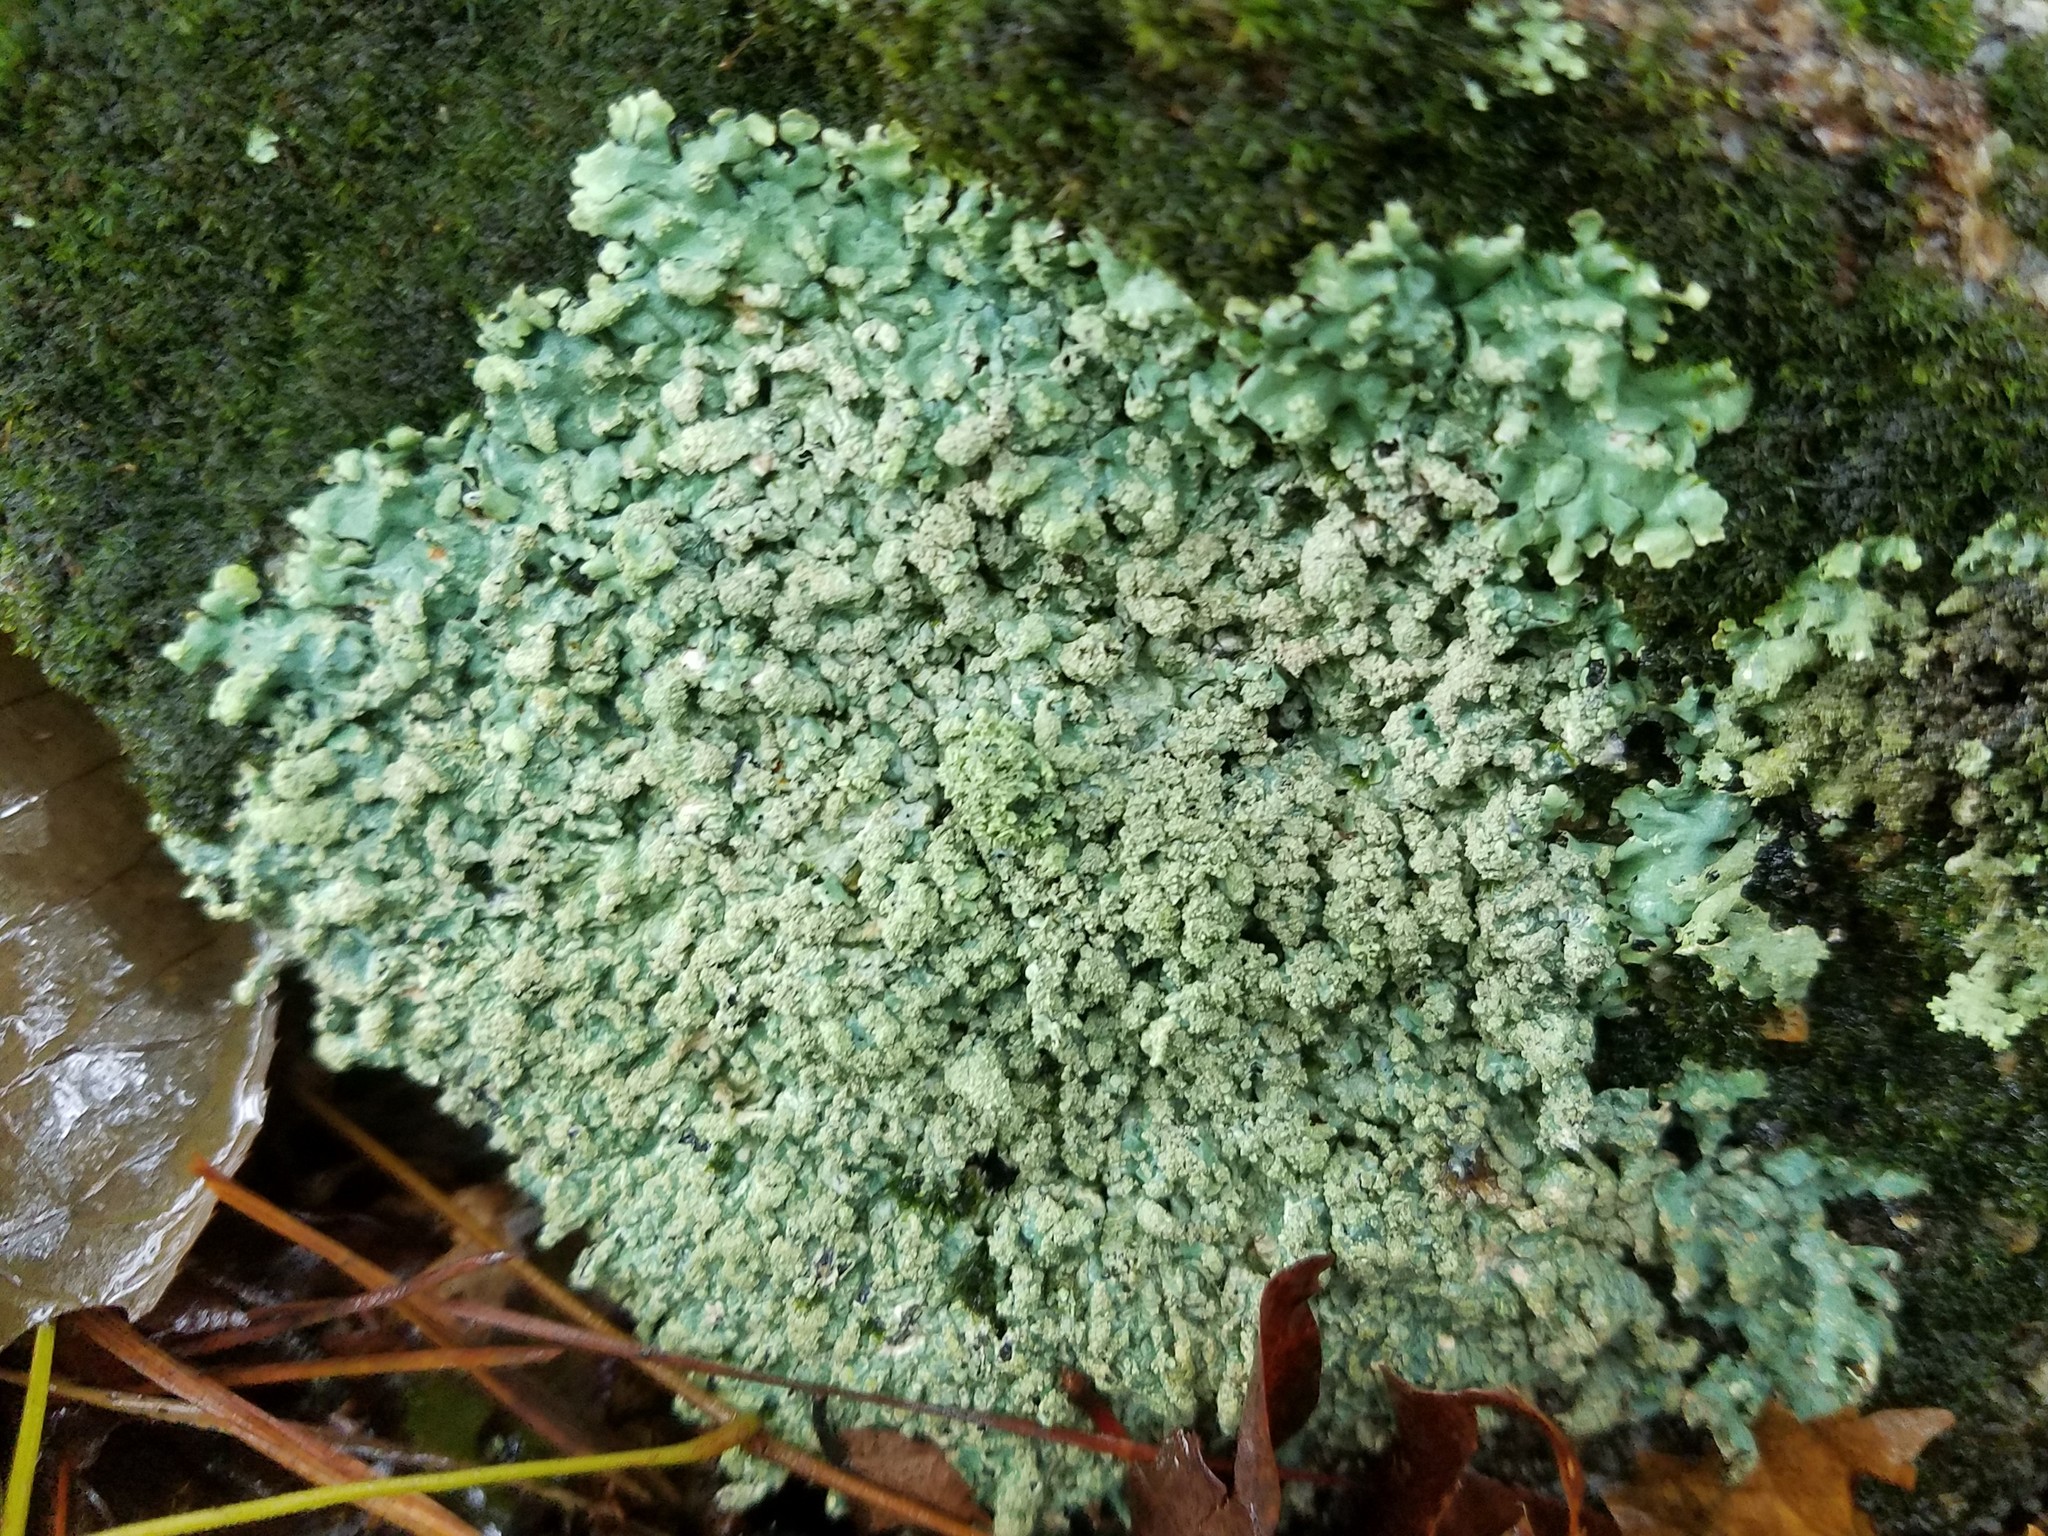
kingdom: Fungi
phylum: Ascomycota
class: Lecanoromycetes
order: Lecanorales
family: Parmeliaceae
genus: Myelochroa
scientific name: Myelochroa aurulenta
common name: Powdery axil-bristle lichen
